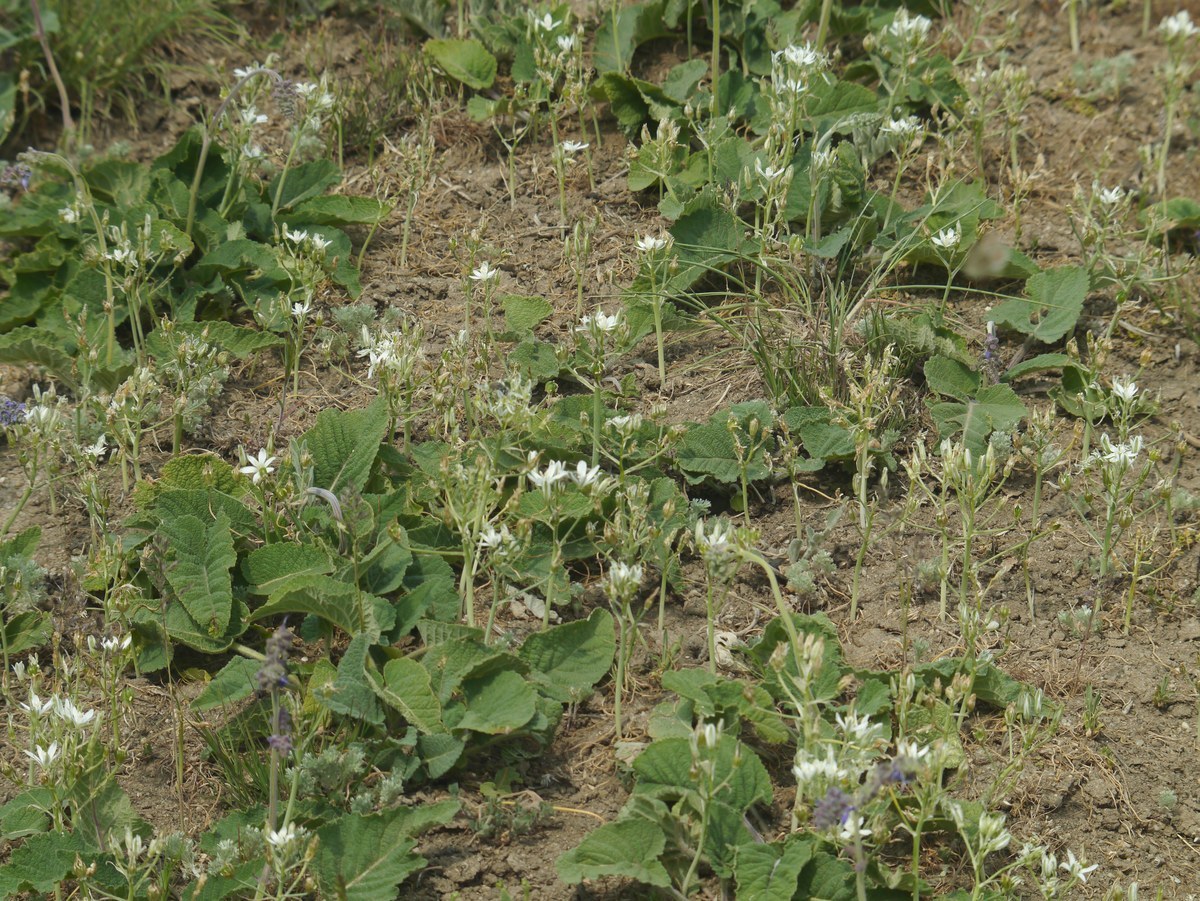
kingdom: Plantae
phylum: Tracheophyta
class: Liliopsida
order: Asparagales
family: Asparagaceae
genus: Ornithogalum
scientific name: Ornithogalum orthophyllum
